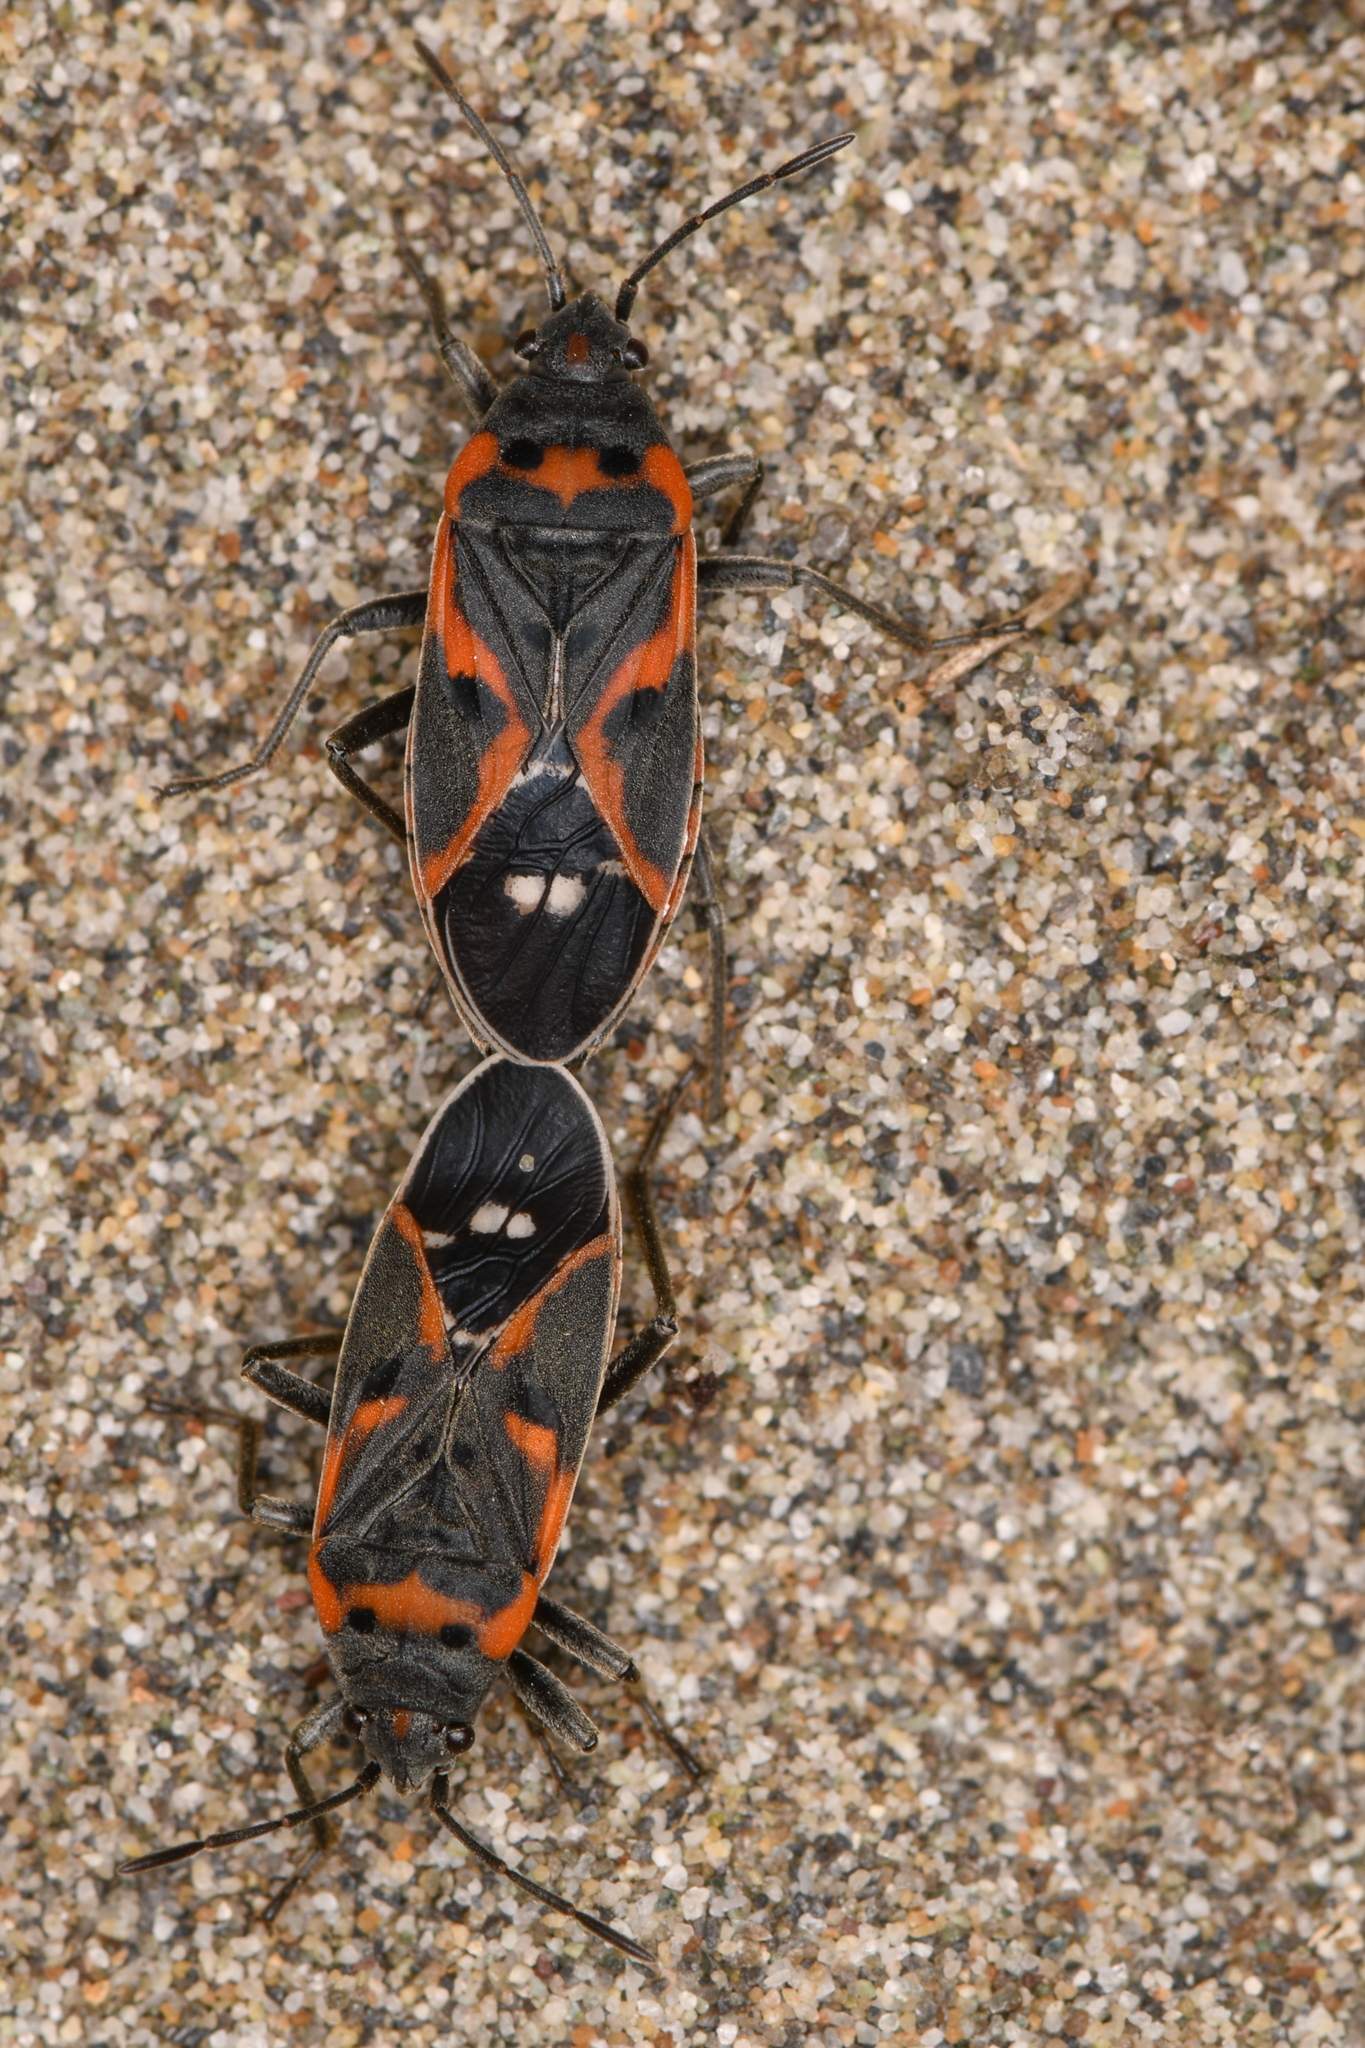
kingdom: Animalia
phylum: Arthropoda
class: Insecta
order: Hemiptera
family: Lygaeidae
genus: Lygaeus
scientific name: Lygaeus kalmii
